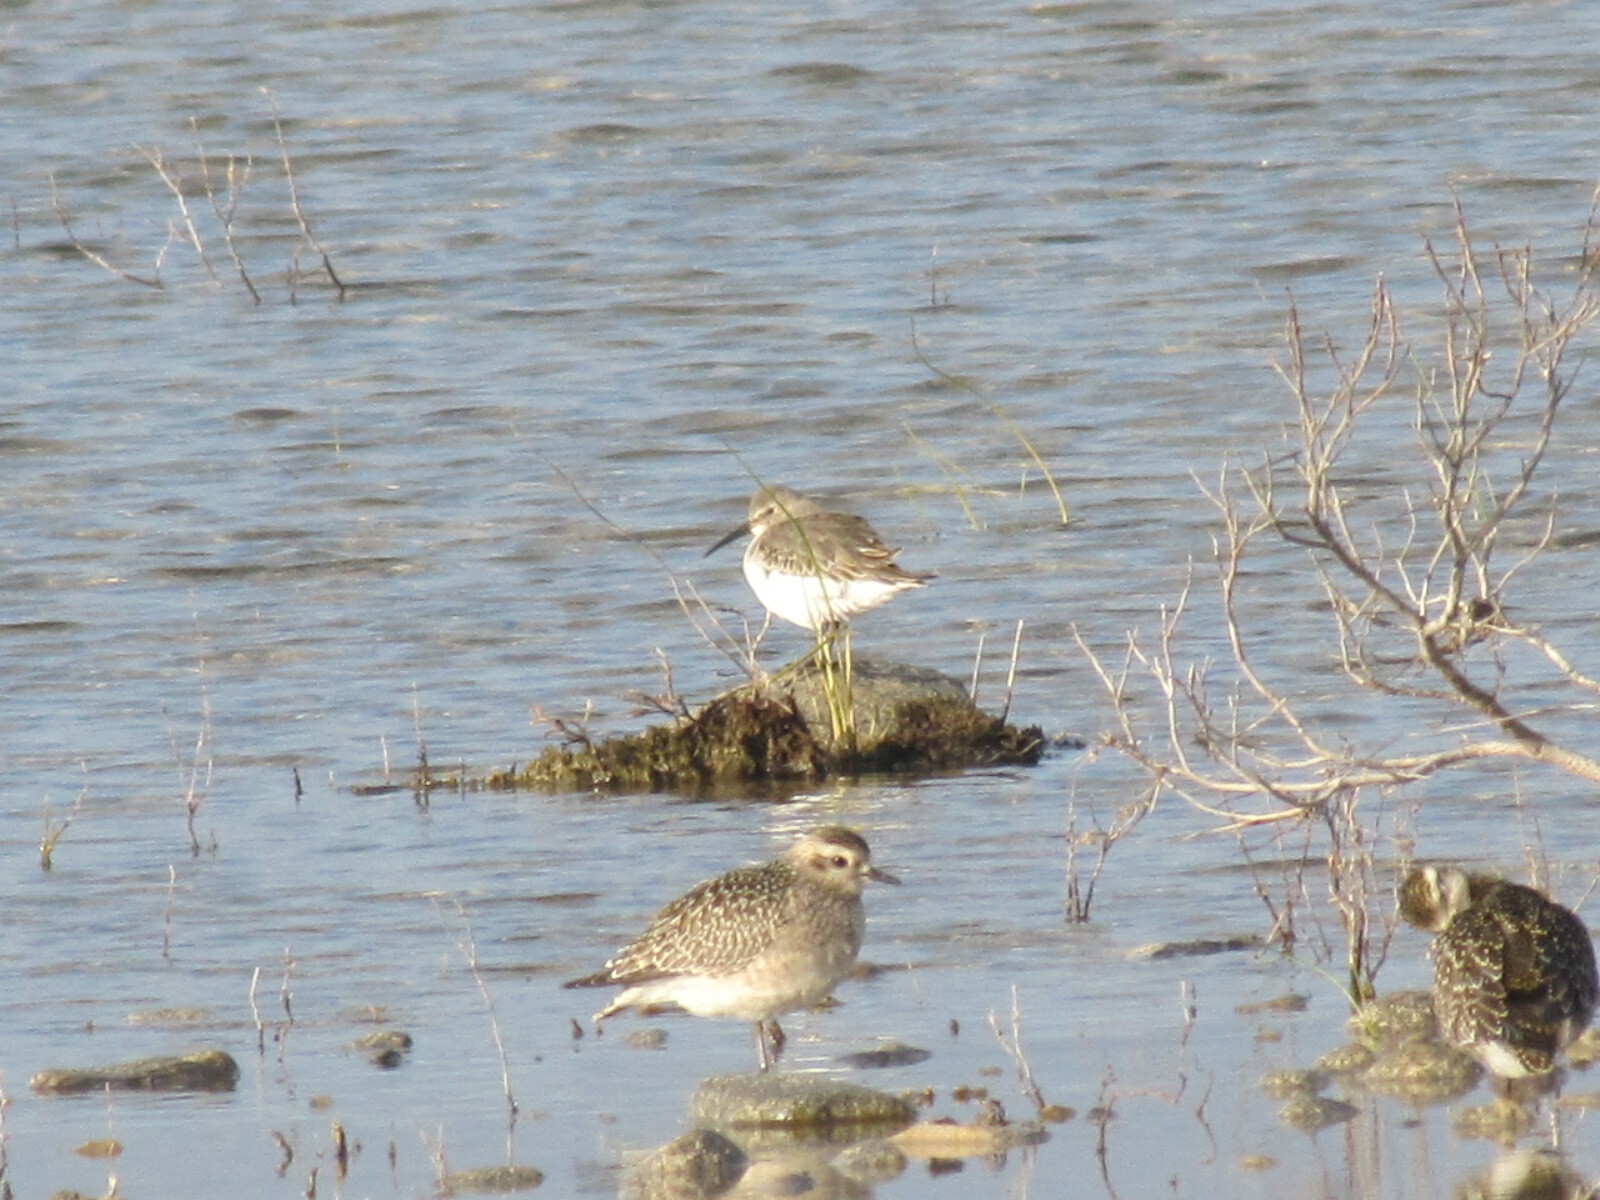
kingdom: Animalia
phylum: Chordata
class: Aves
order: Charadriiformes
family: Scolopacidae
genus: Calidris
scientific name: Calidris alpina
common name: Dunlin
